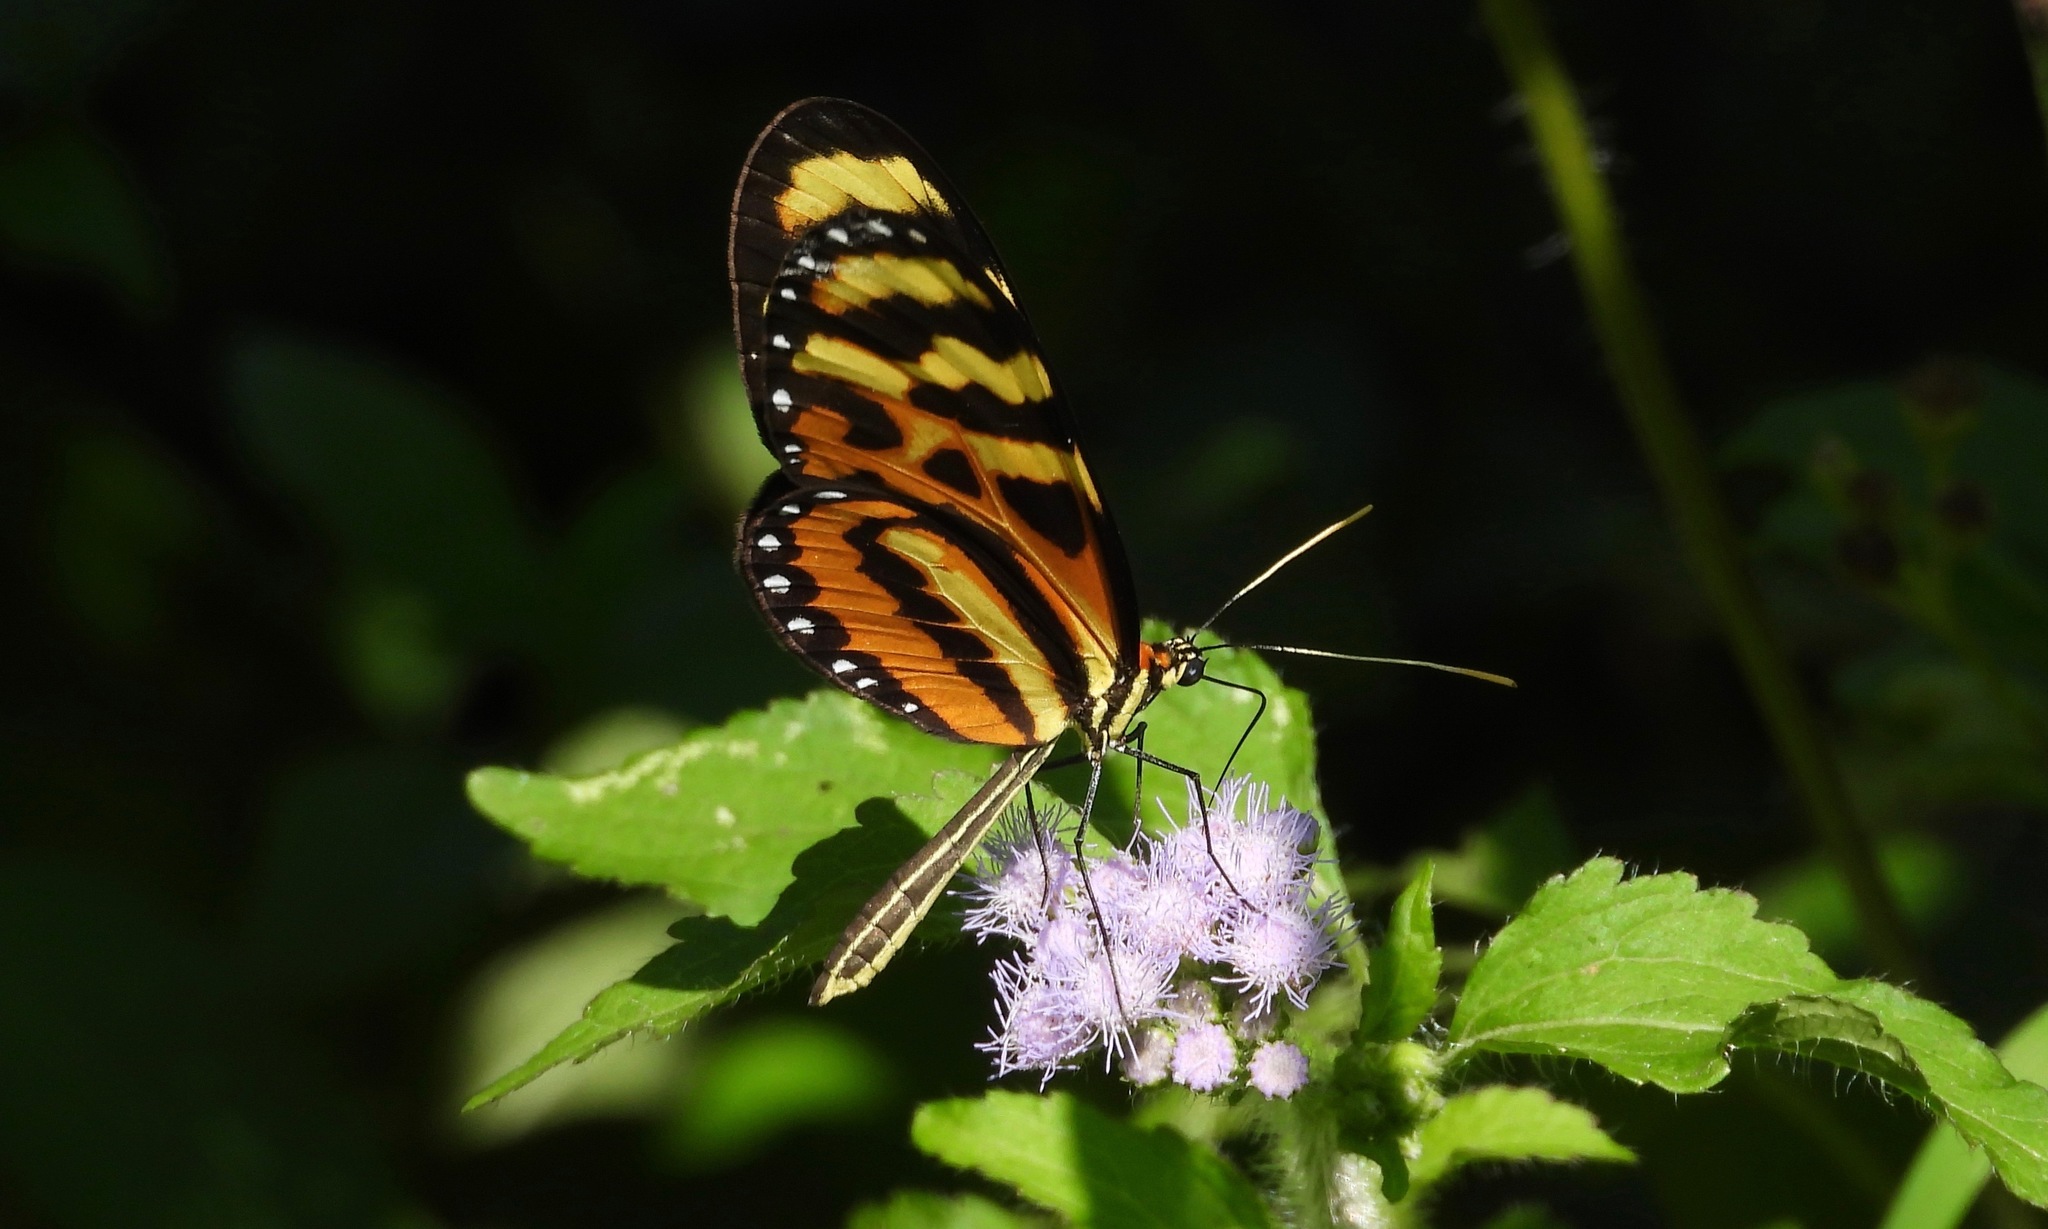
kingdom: Animalia
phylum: Arthropoda
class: Insecta
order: Lepidoptera
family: Nymphalidae
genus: Mechanitis
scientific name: Mechanitis lysimnia
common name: Lysimnia tigerwing
